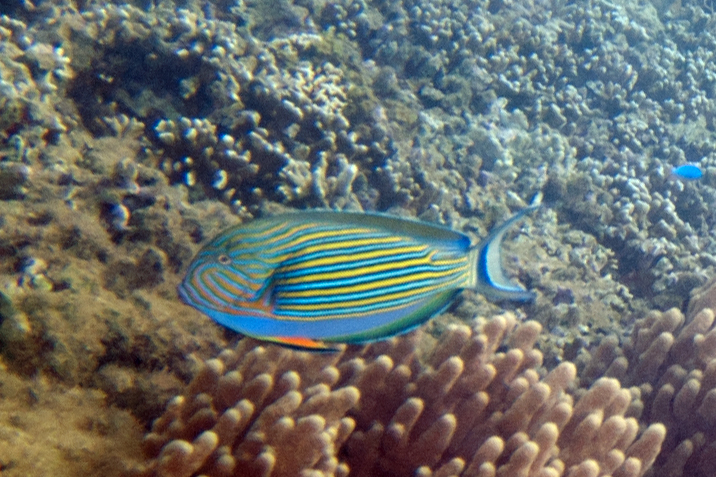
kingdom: Animalia
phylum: Chordata
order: Perciformes
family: Acanthuridae
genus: Acanthurus
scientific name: Acanthurus lineatus
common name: Striped surgeonfish
